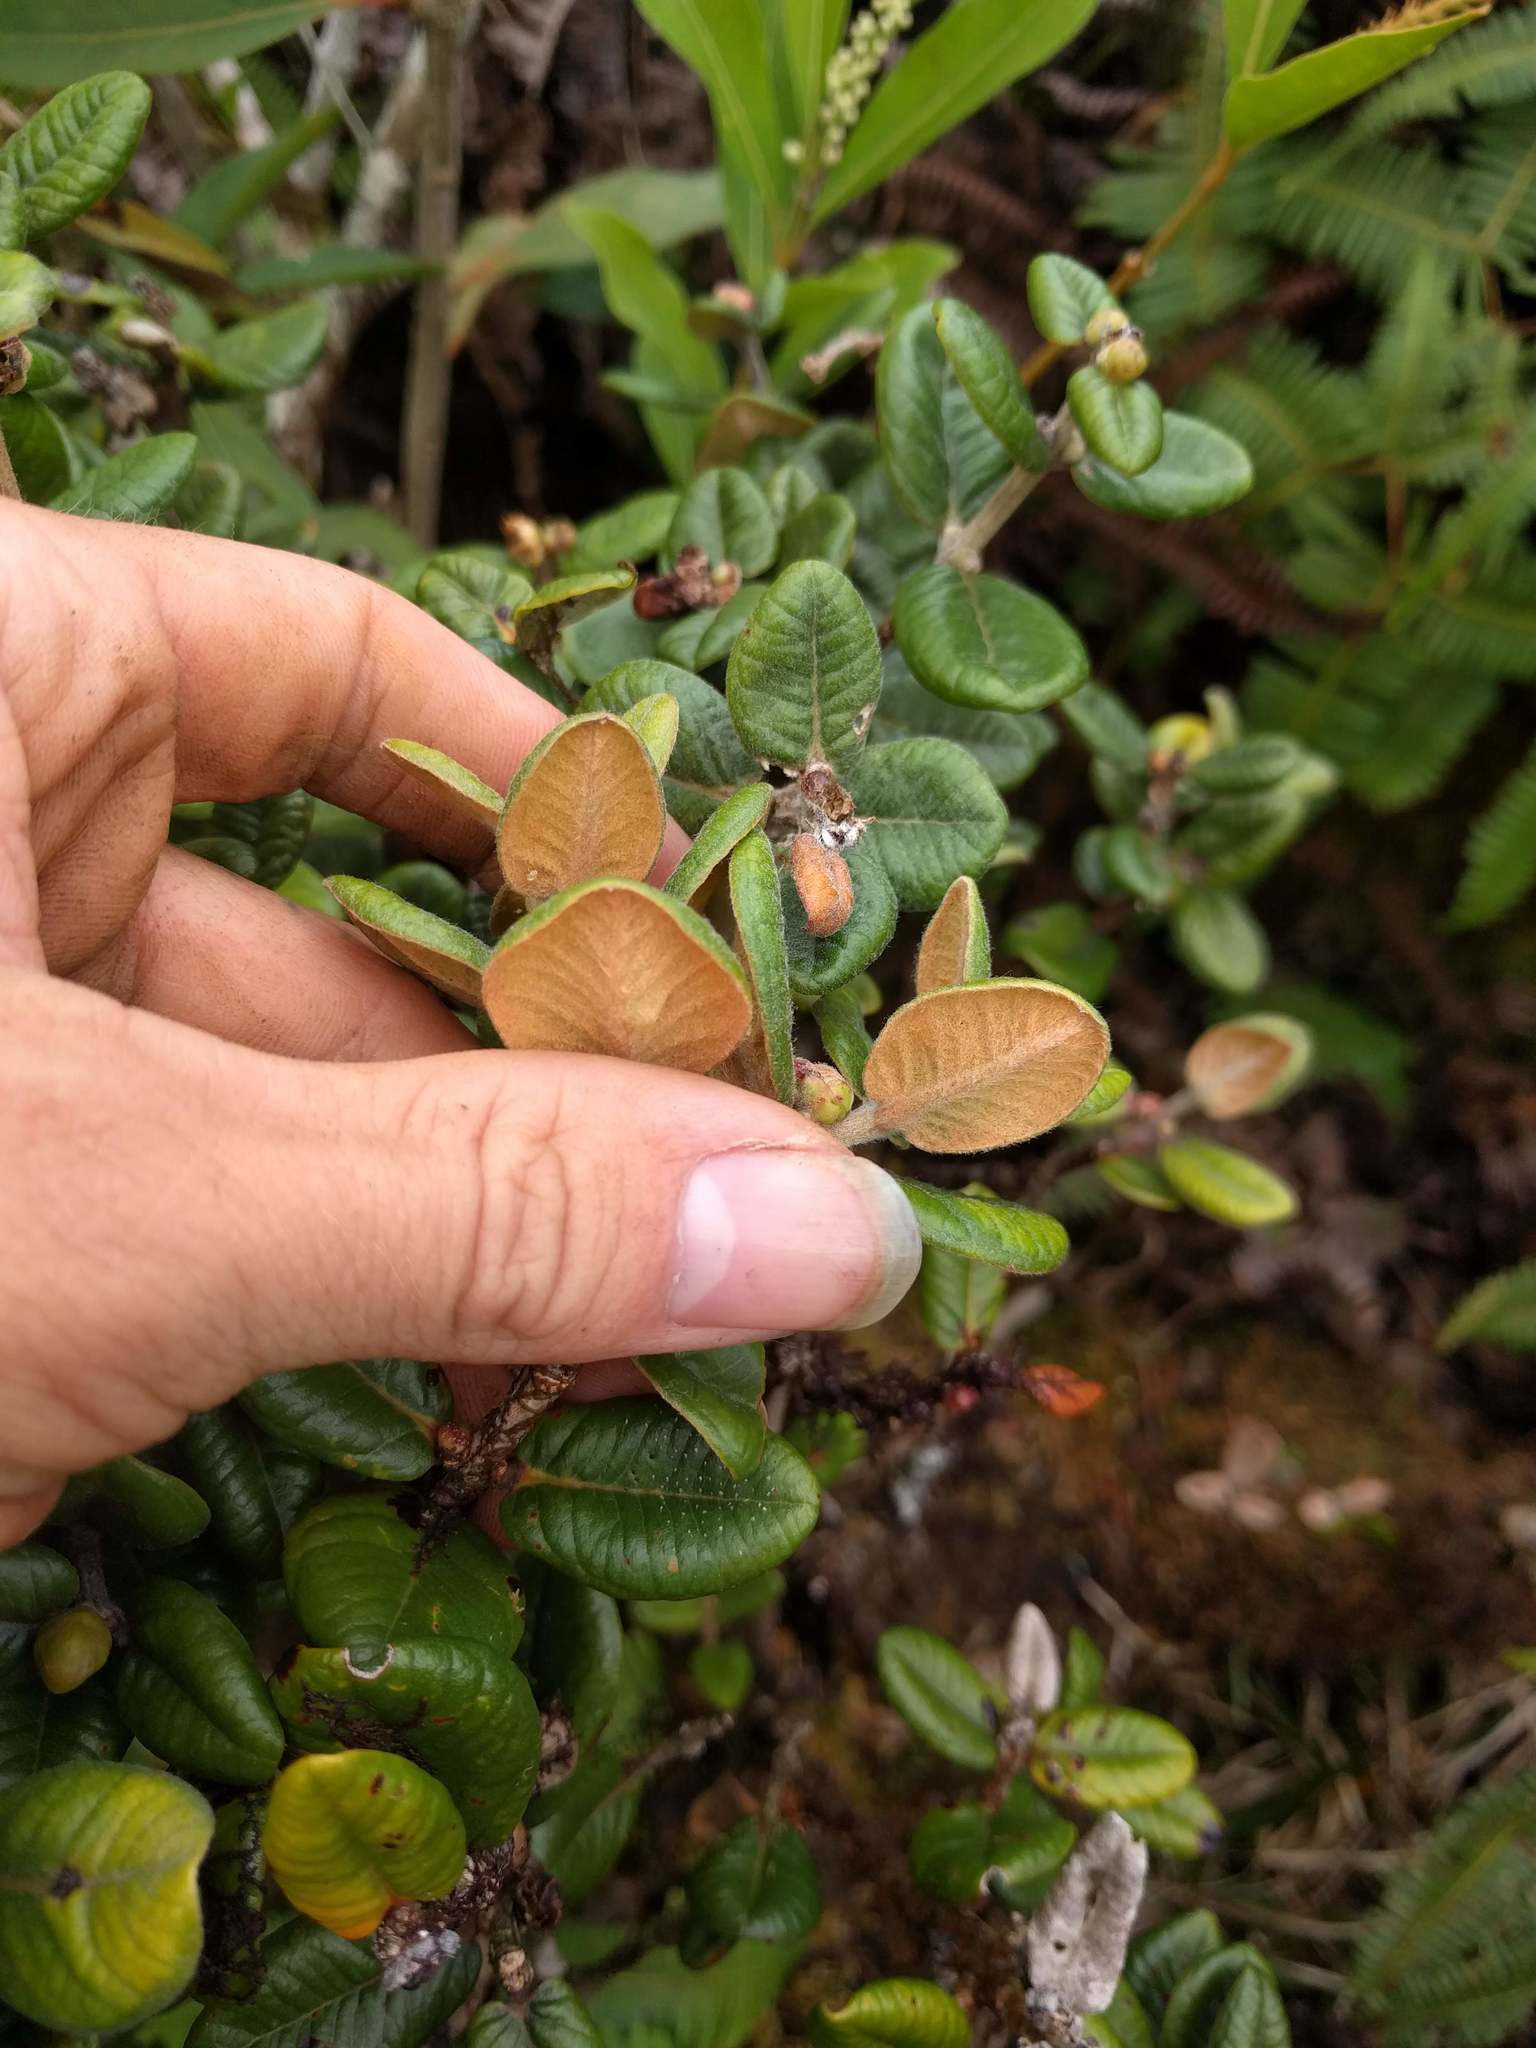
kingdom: Plantae
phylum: Tracheophyta
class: Magnoliopsida
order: Myrtales
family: Myrtaceae
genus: Metrosideros
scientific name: Metrosideros rugosa
